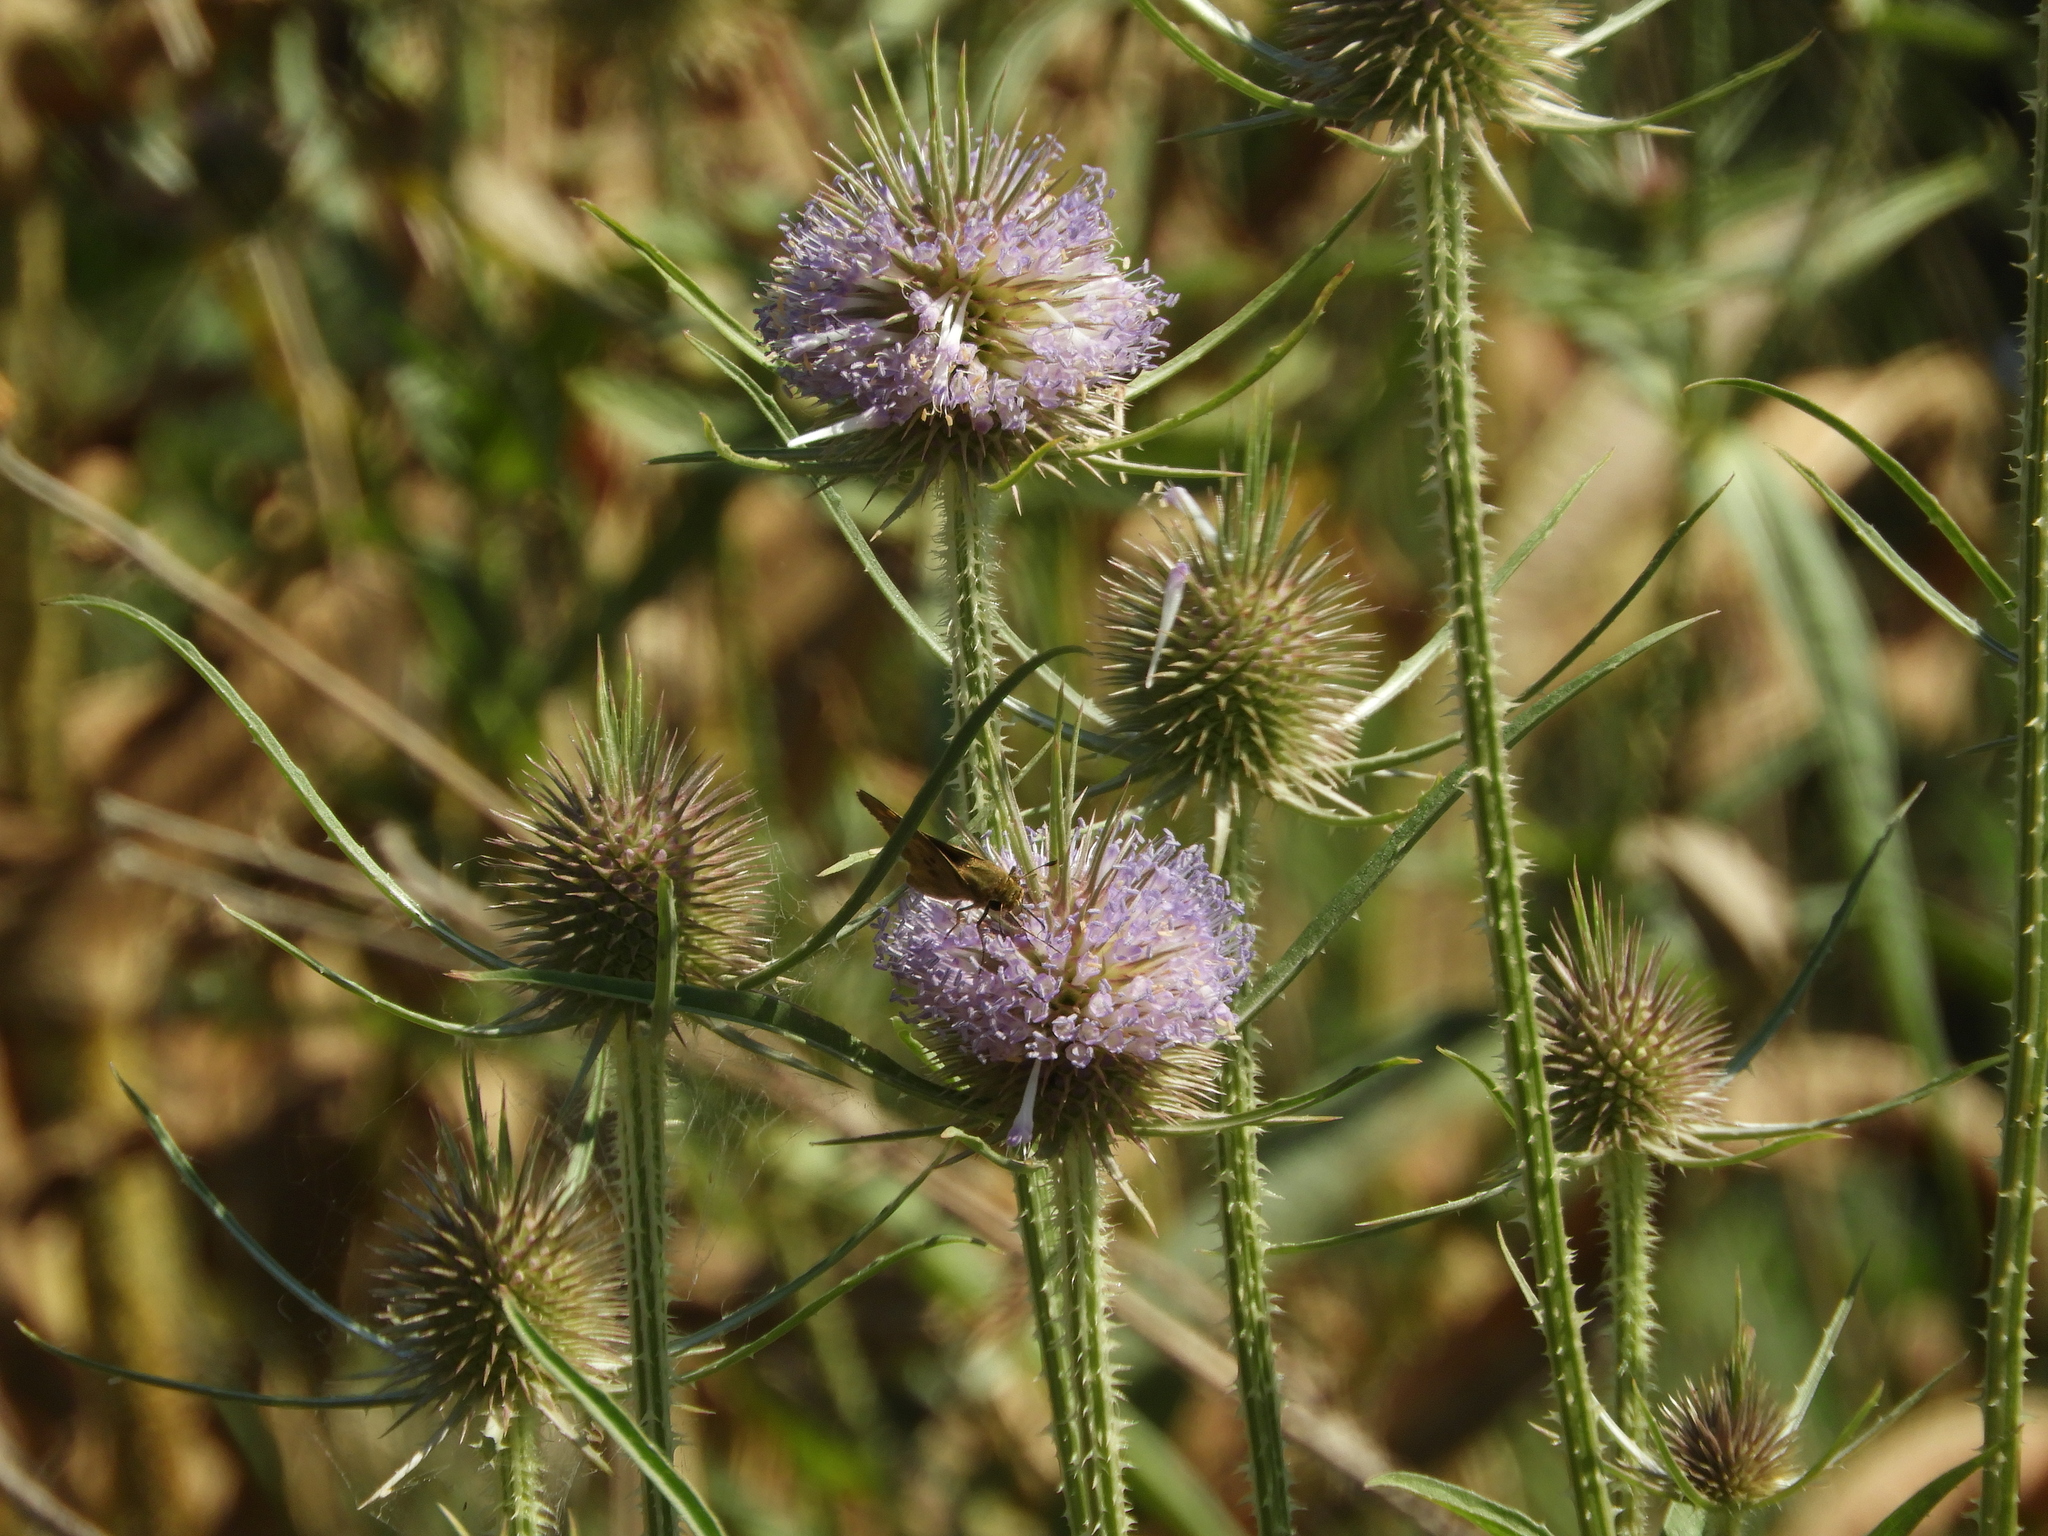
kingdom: Plantae
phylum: Tracheophyta
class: Magnoliopsida
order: Dipsacales
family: Caprifoliaceae
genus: Dipsacus
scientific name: Dipsacus fullonum
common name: Teasel
